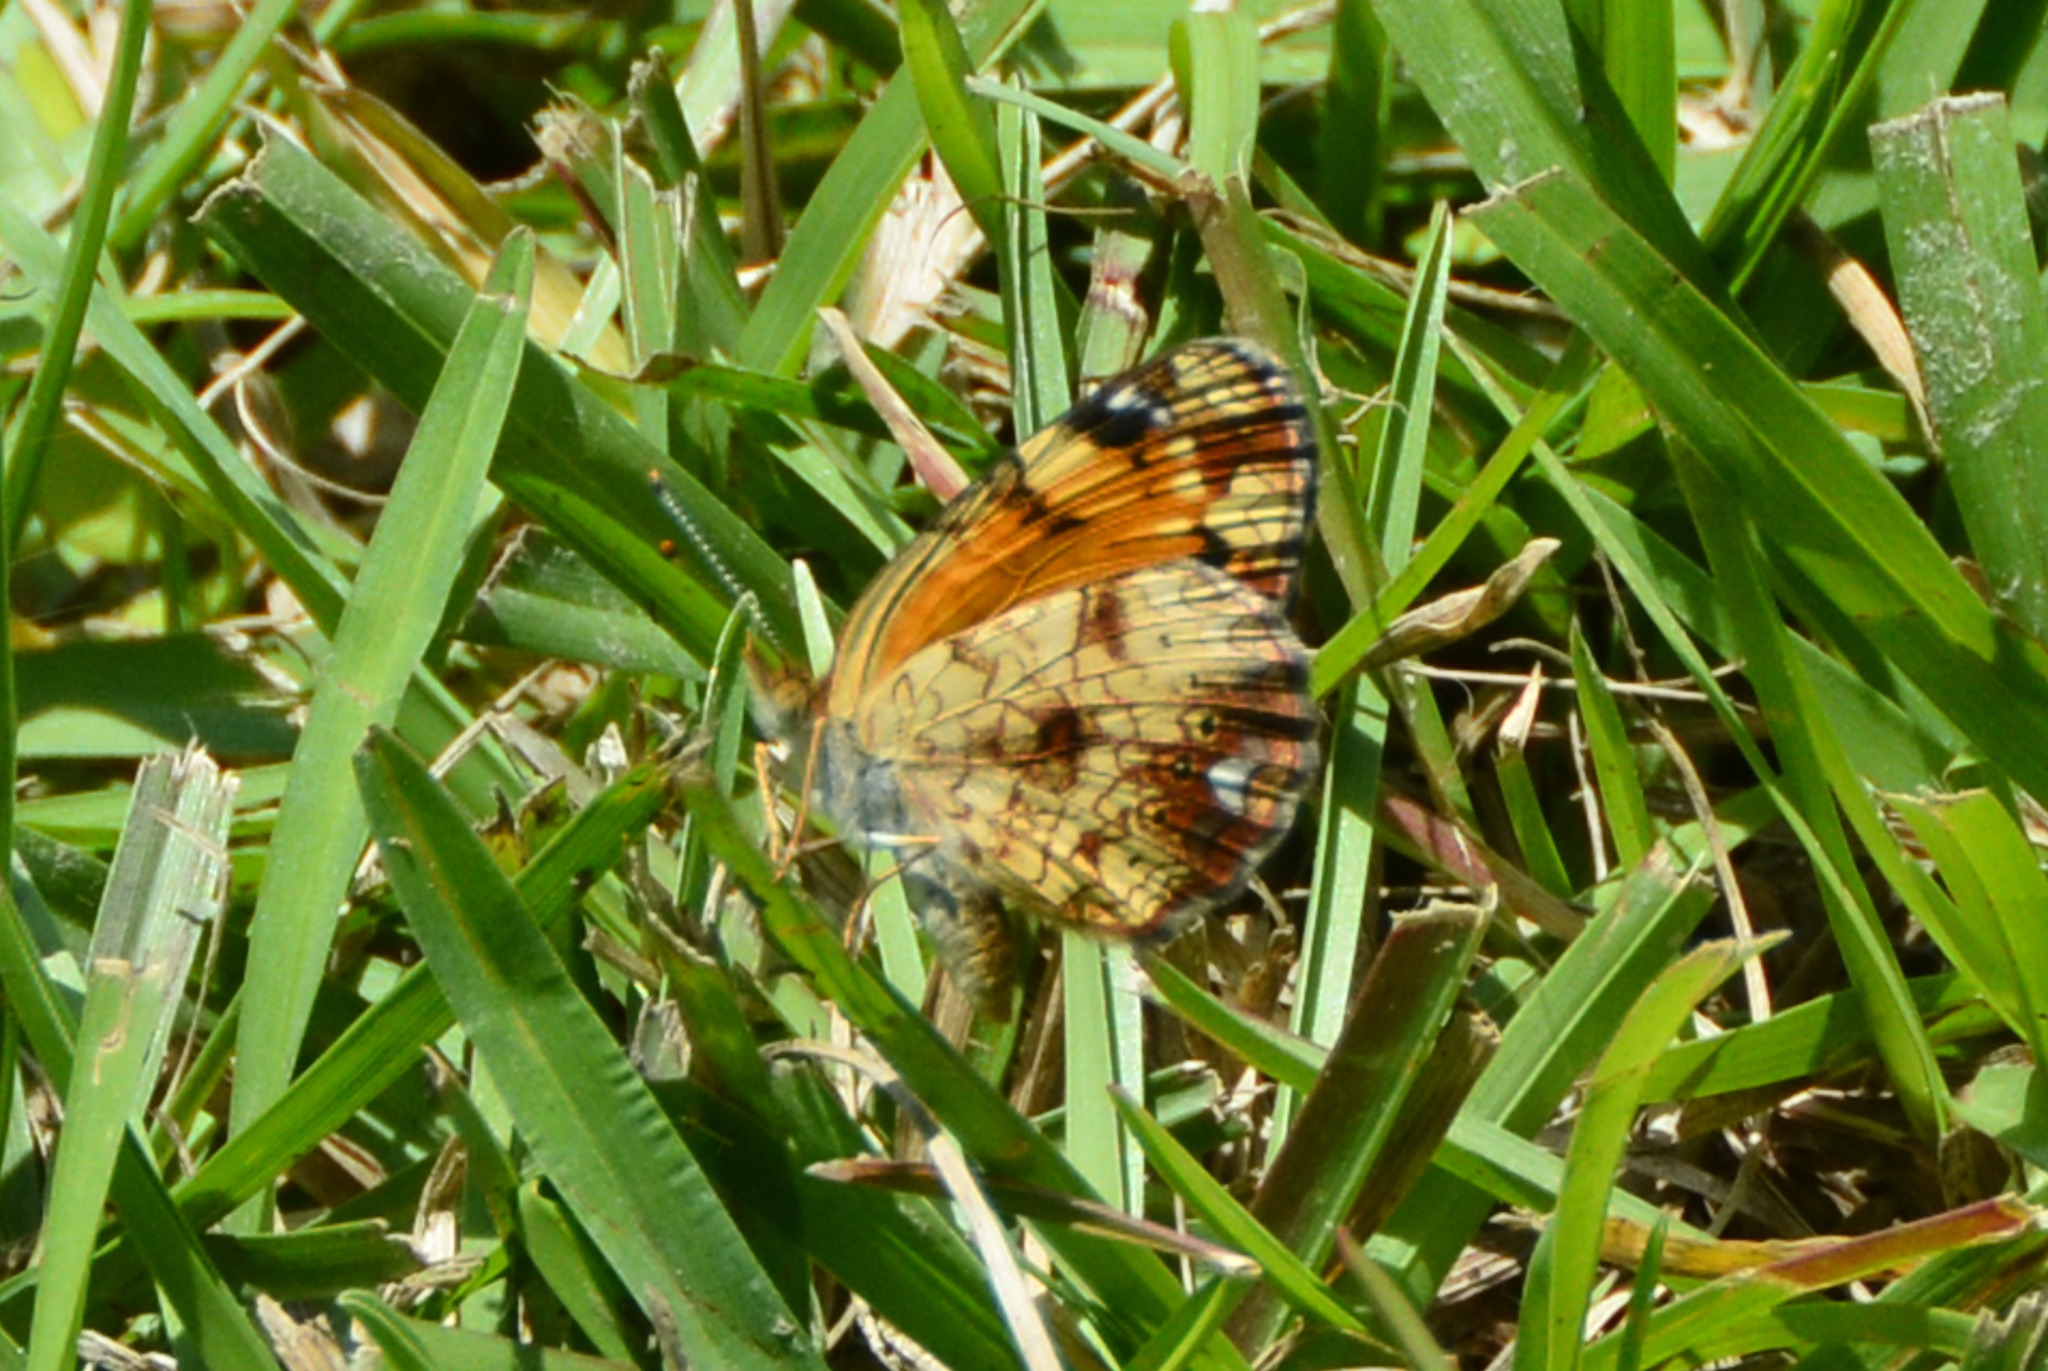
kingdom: Animalia
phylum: Arthropoda
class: Insecta
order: Lepidoptera
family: Nymphalidae
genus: Phyciodes
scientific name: Phyciodes tharos
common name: Pearl crescent
